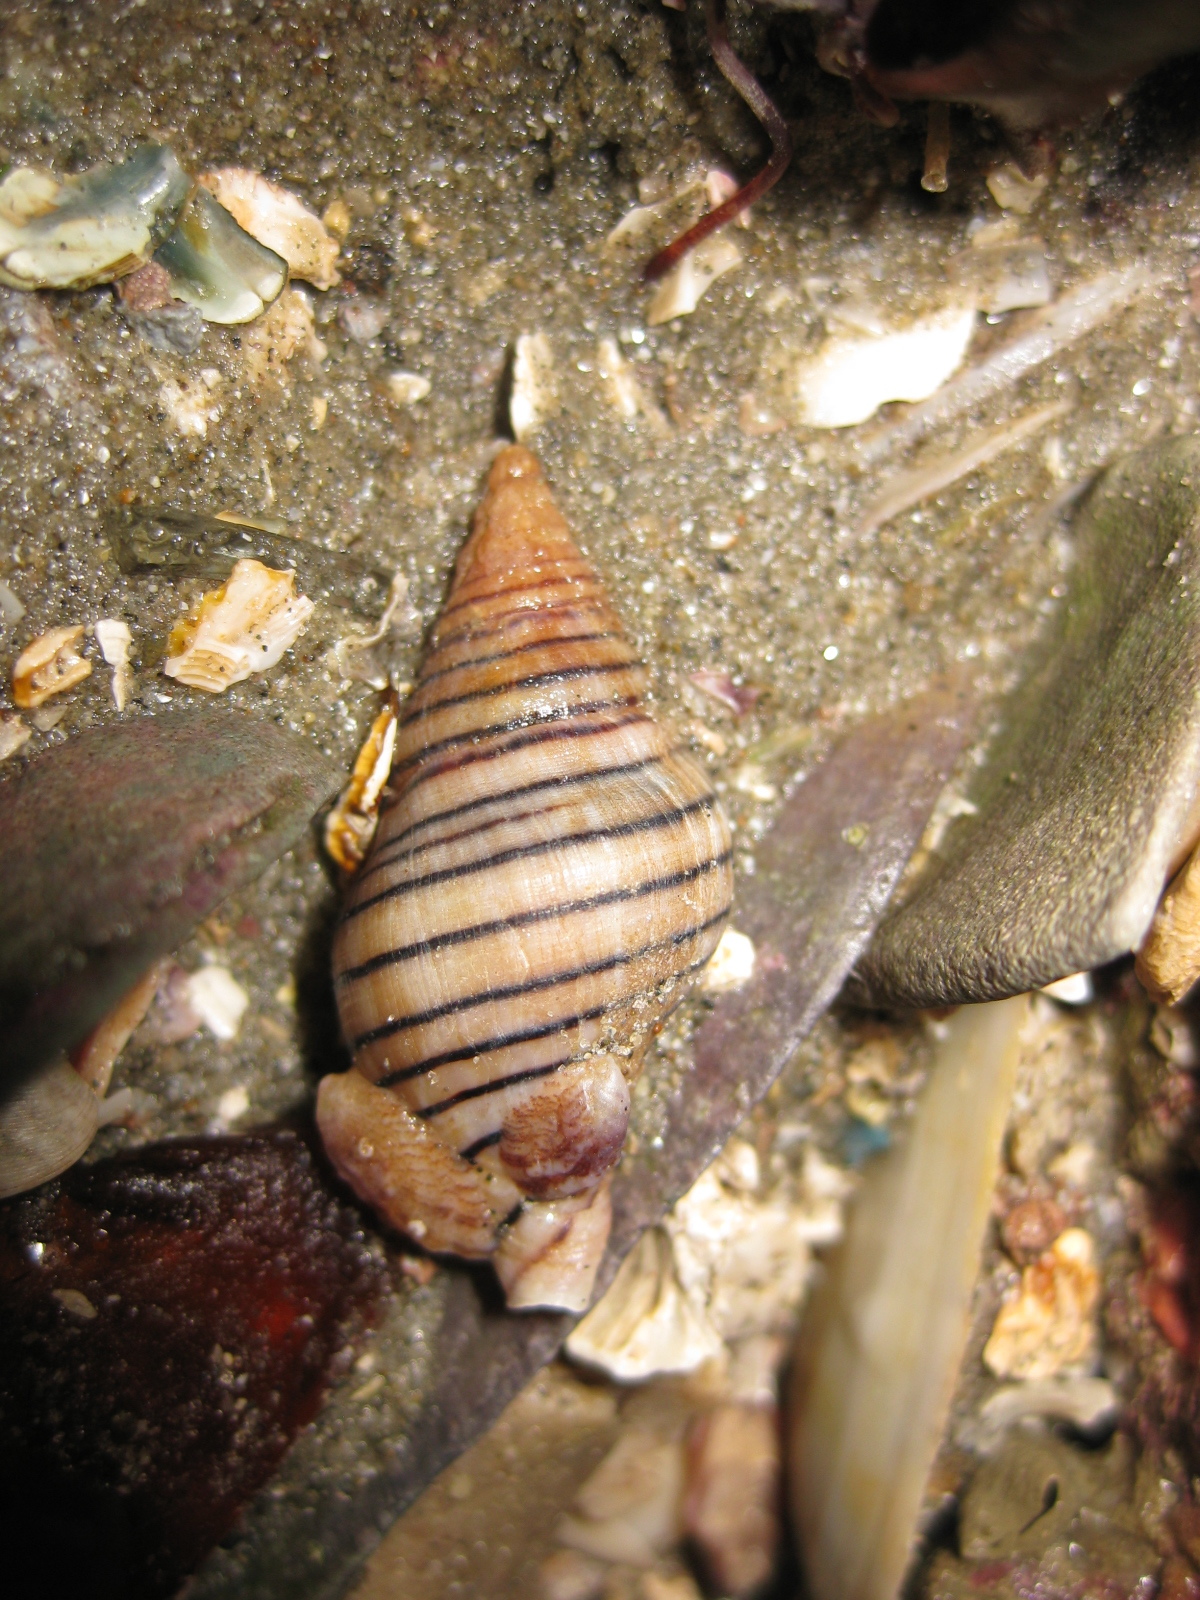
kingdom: Animalia
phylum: Mollusca
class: Gastropoda
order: Littorinimorpha
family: Calyptraeidae
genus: Maoricrypta
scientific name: Maoricrypta costata
